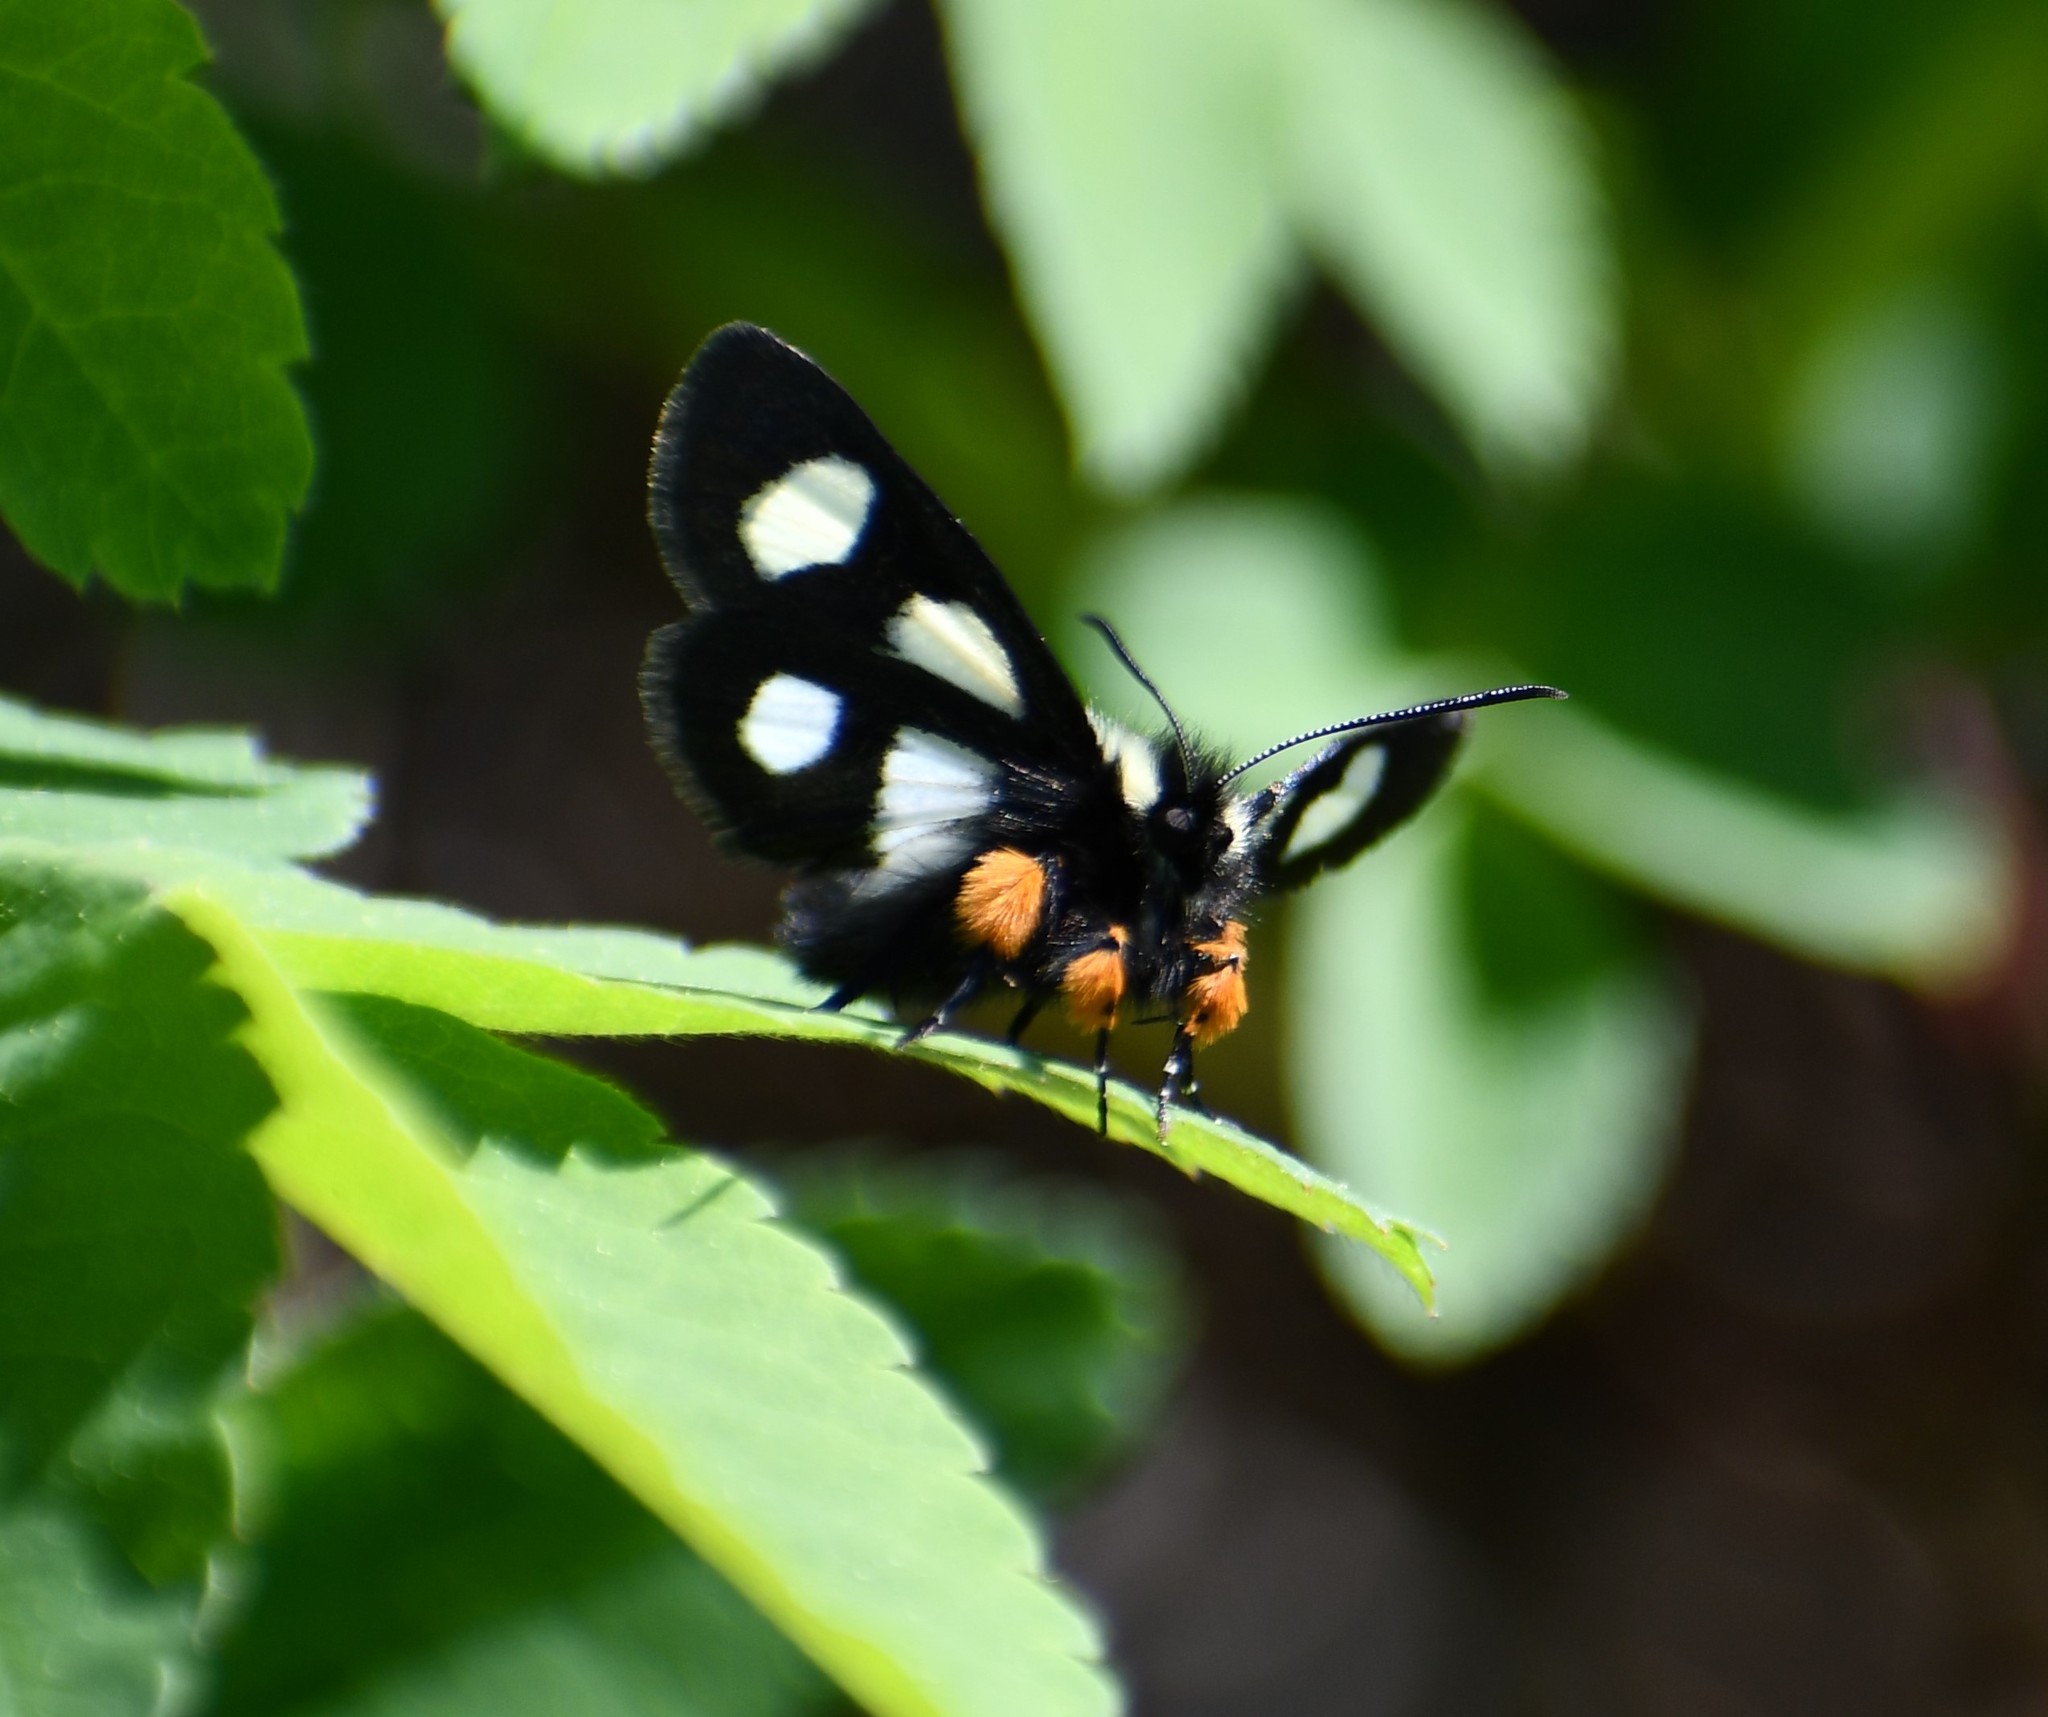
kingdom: Animalia
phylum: Arthropoda
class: Insecta
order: Lepidoptera
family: Noctuidae
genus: Alypia
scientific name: Alypia langtonii
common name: Fireweed caterpillar
